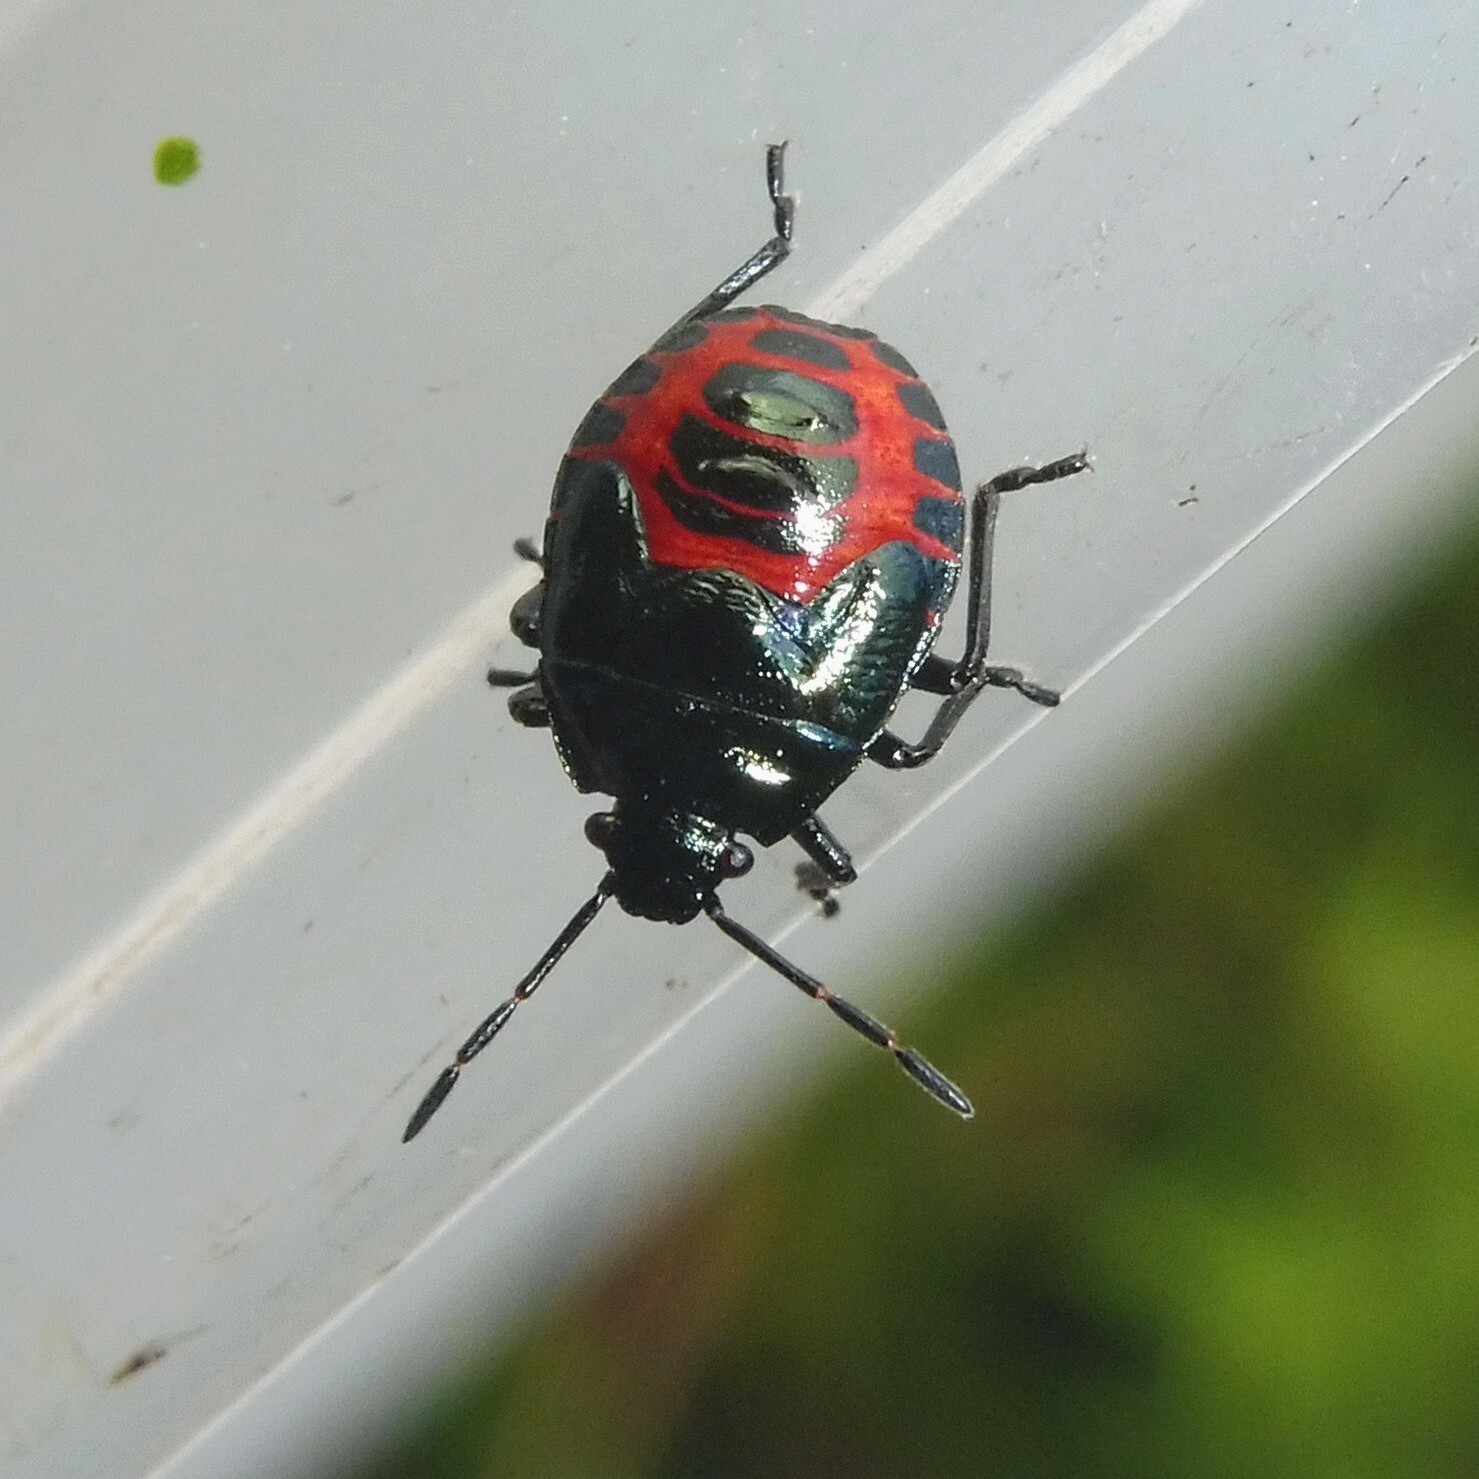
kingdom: Animalia
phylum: Arthropoda
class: Insecta
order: Hemiptera
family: Pentatomidae
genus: Zicrona
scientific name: Zicrona caerulea
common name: Blue shieldbug
